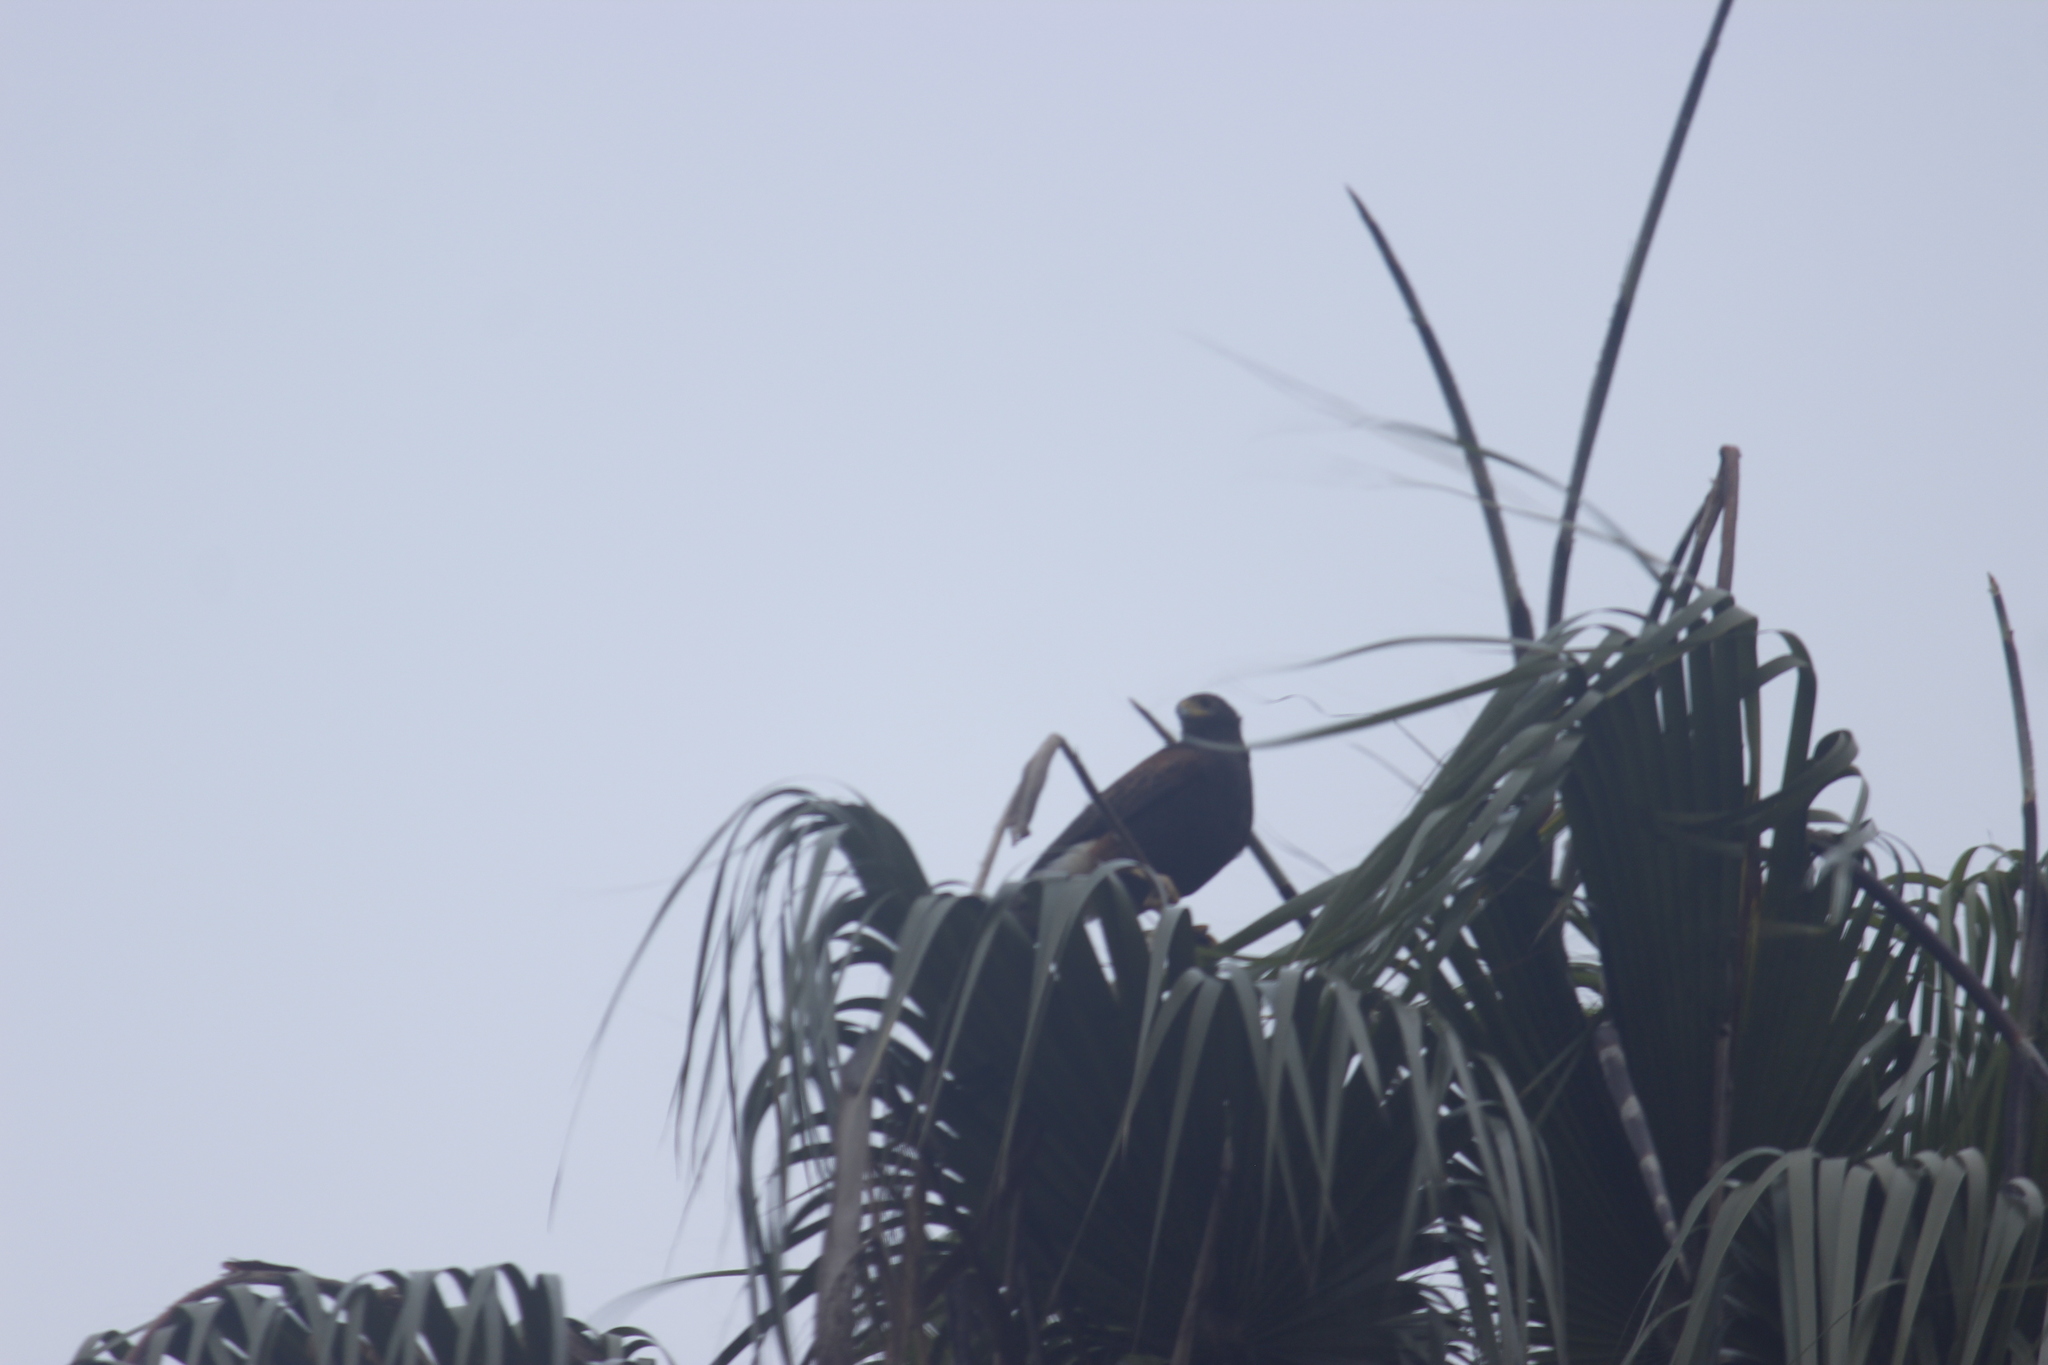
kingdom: Animalia
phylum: Chordata
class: Aves
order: Accipitriformes
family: Accipitridae
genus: Parabuteo
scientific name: Parabuteo unicinctus
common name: Harris's hawk
